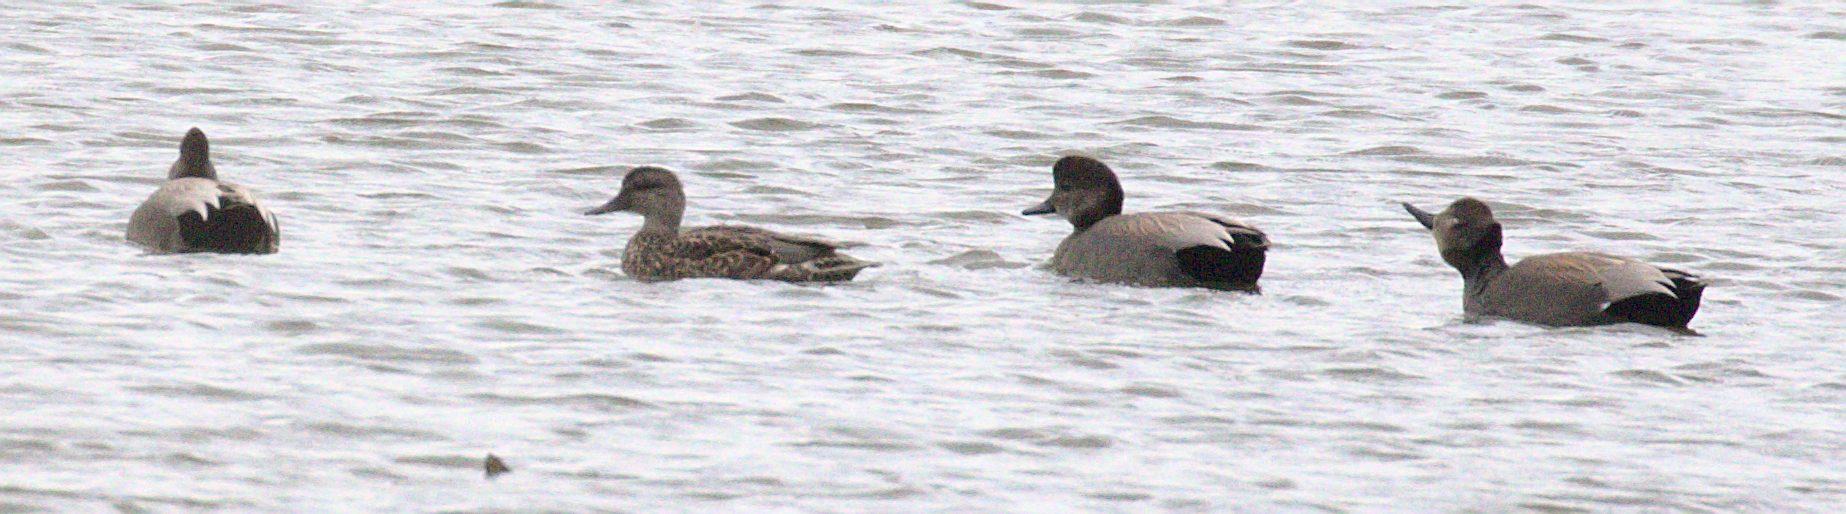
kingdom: Animalia
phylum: Chordata
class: Aves
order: Anseriformes
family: Anatidae
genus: Mareca
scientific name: Mareca strepera
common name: Gadwall
